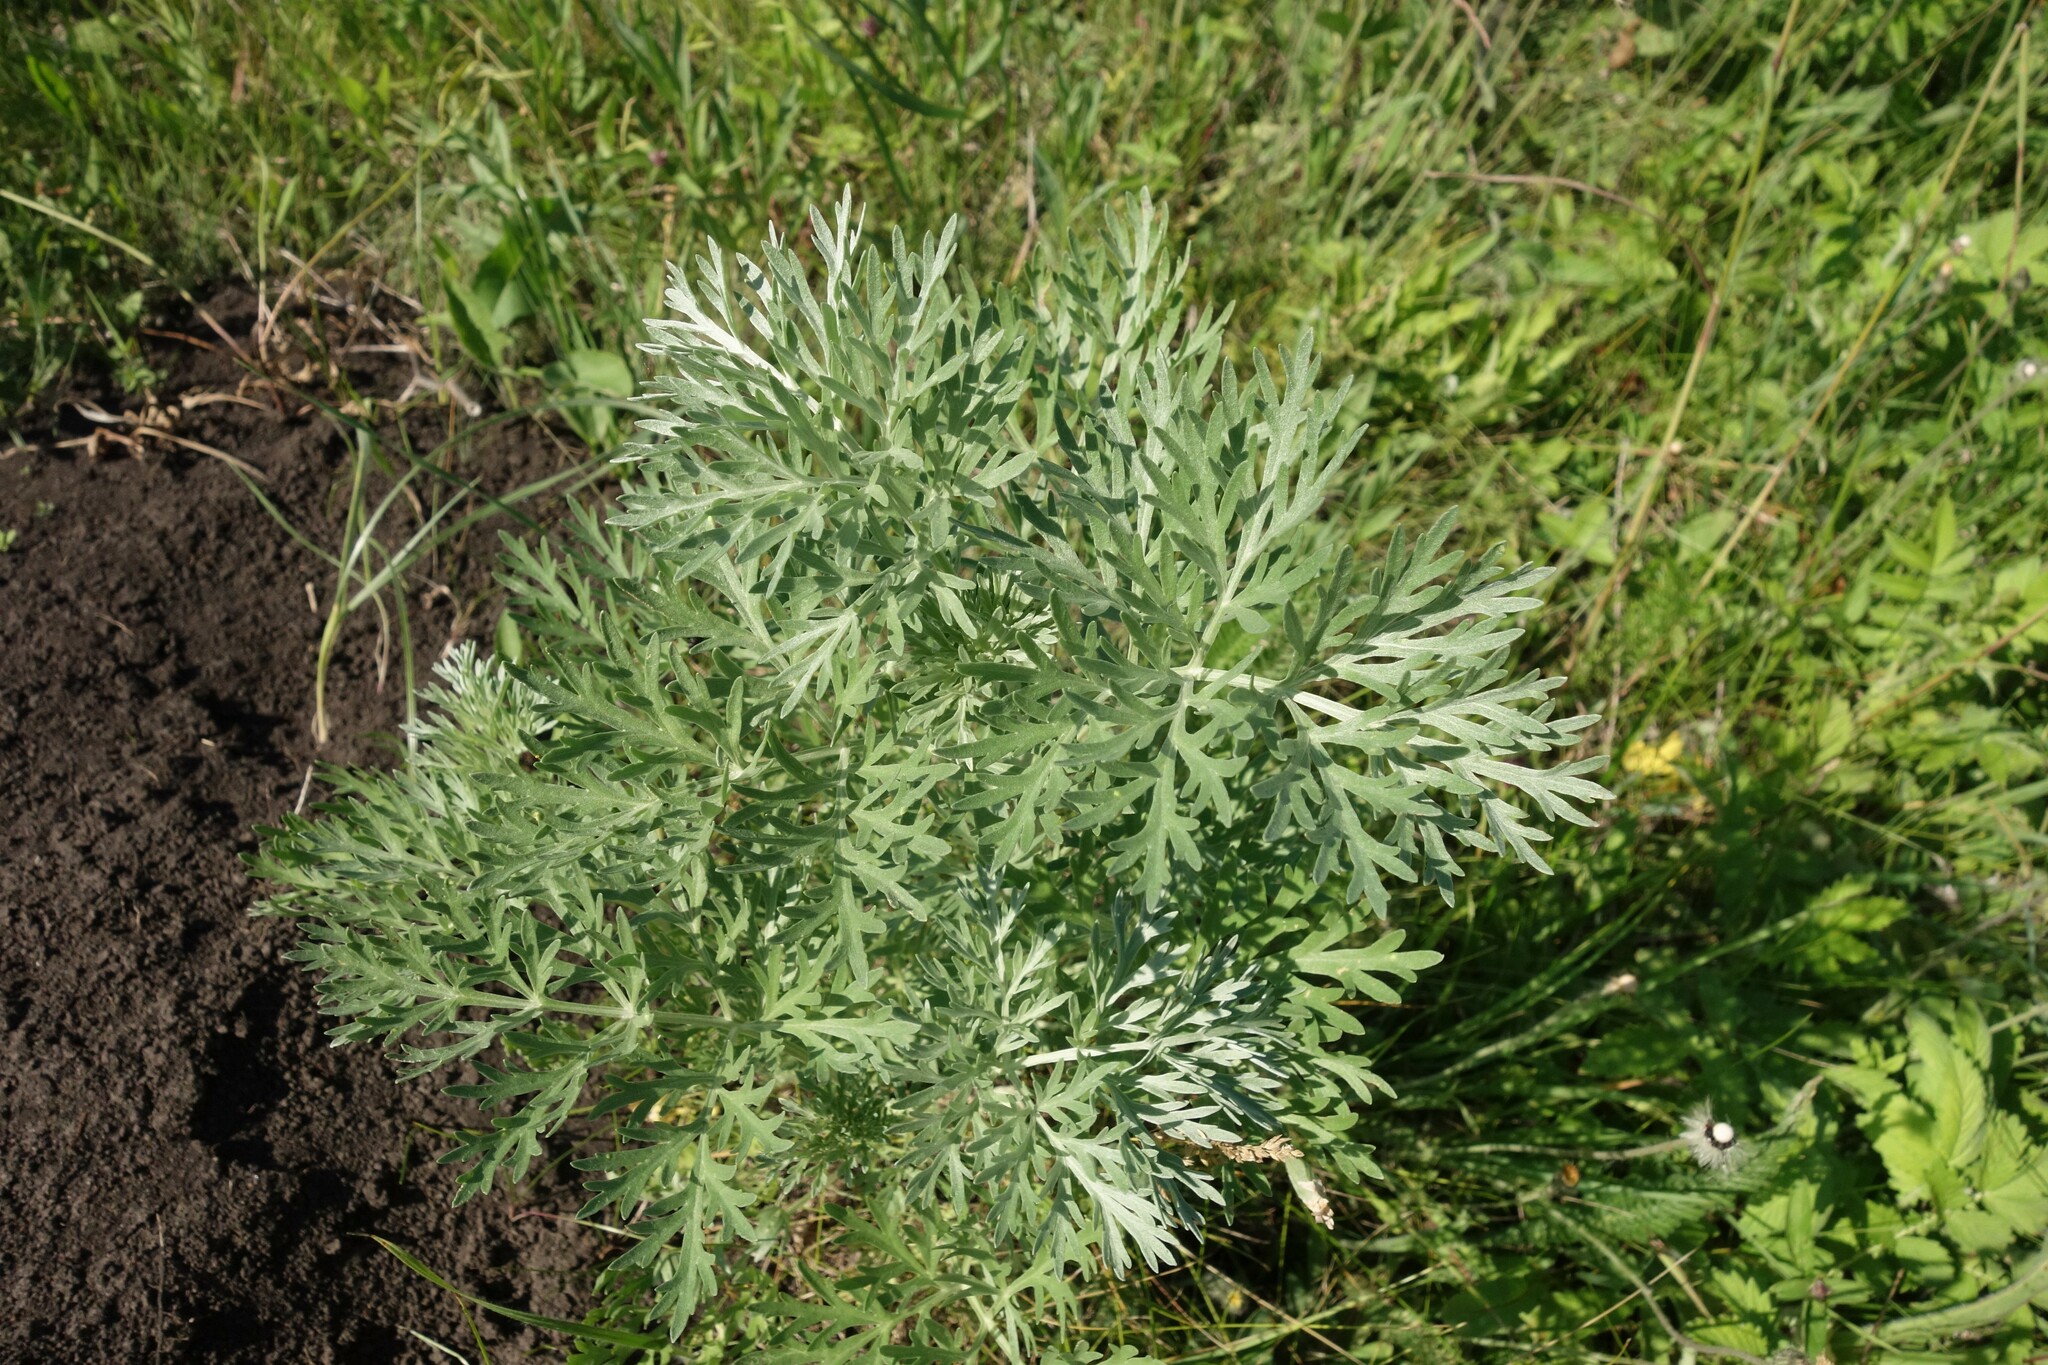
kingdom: Plantae
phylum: Tracheophyta
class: Magnoliopsida
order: Asterales
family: Asteraceae
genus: Artemisia
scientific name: Artemisia absinthium
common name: Wormwood
